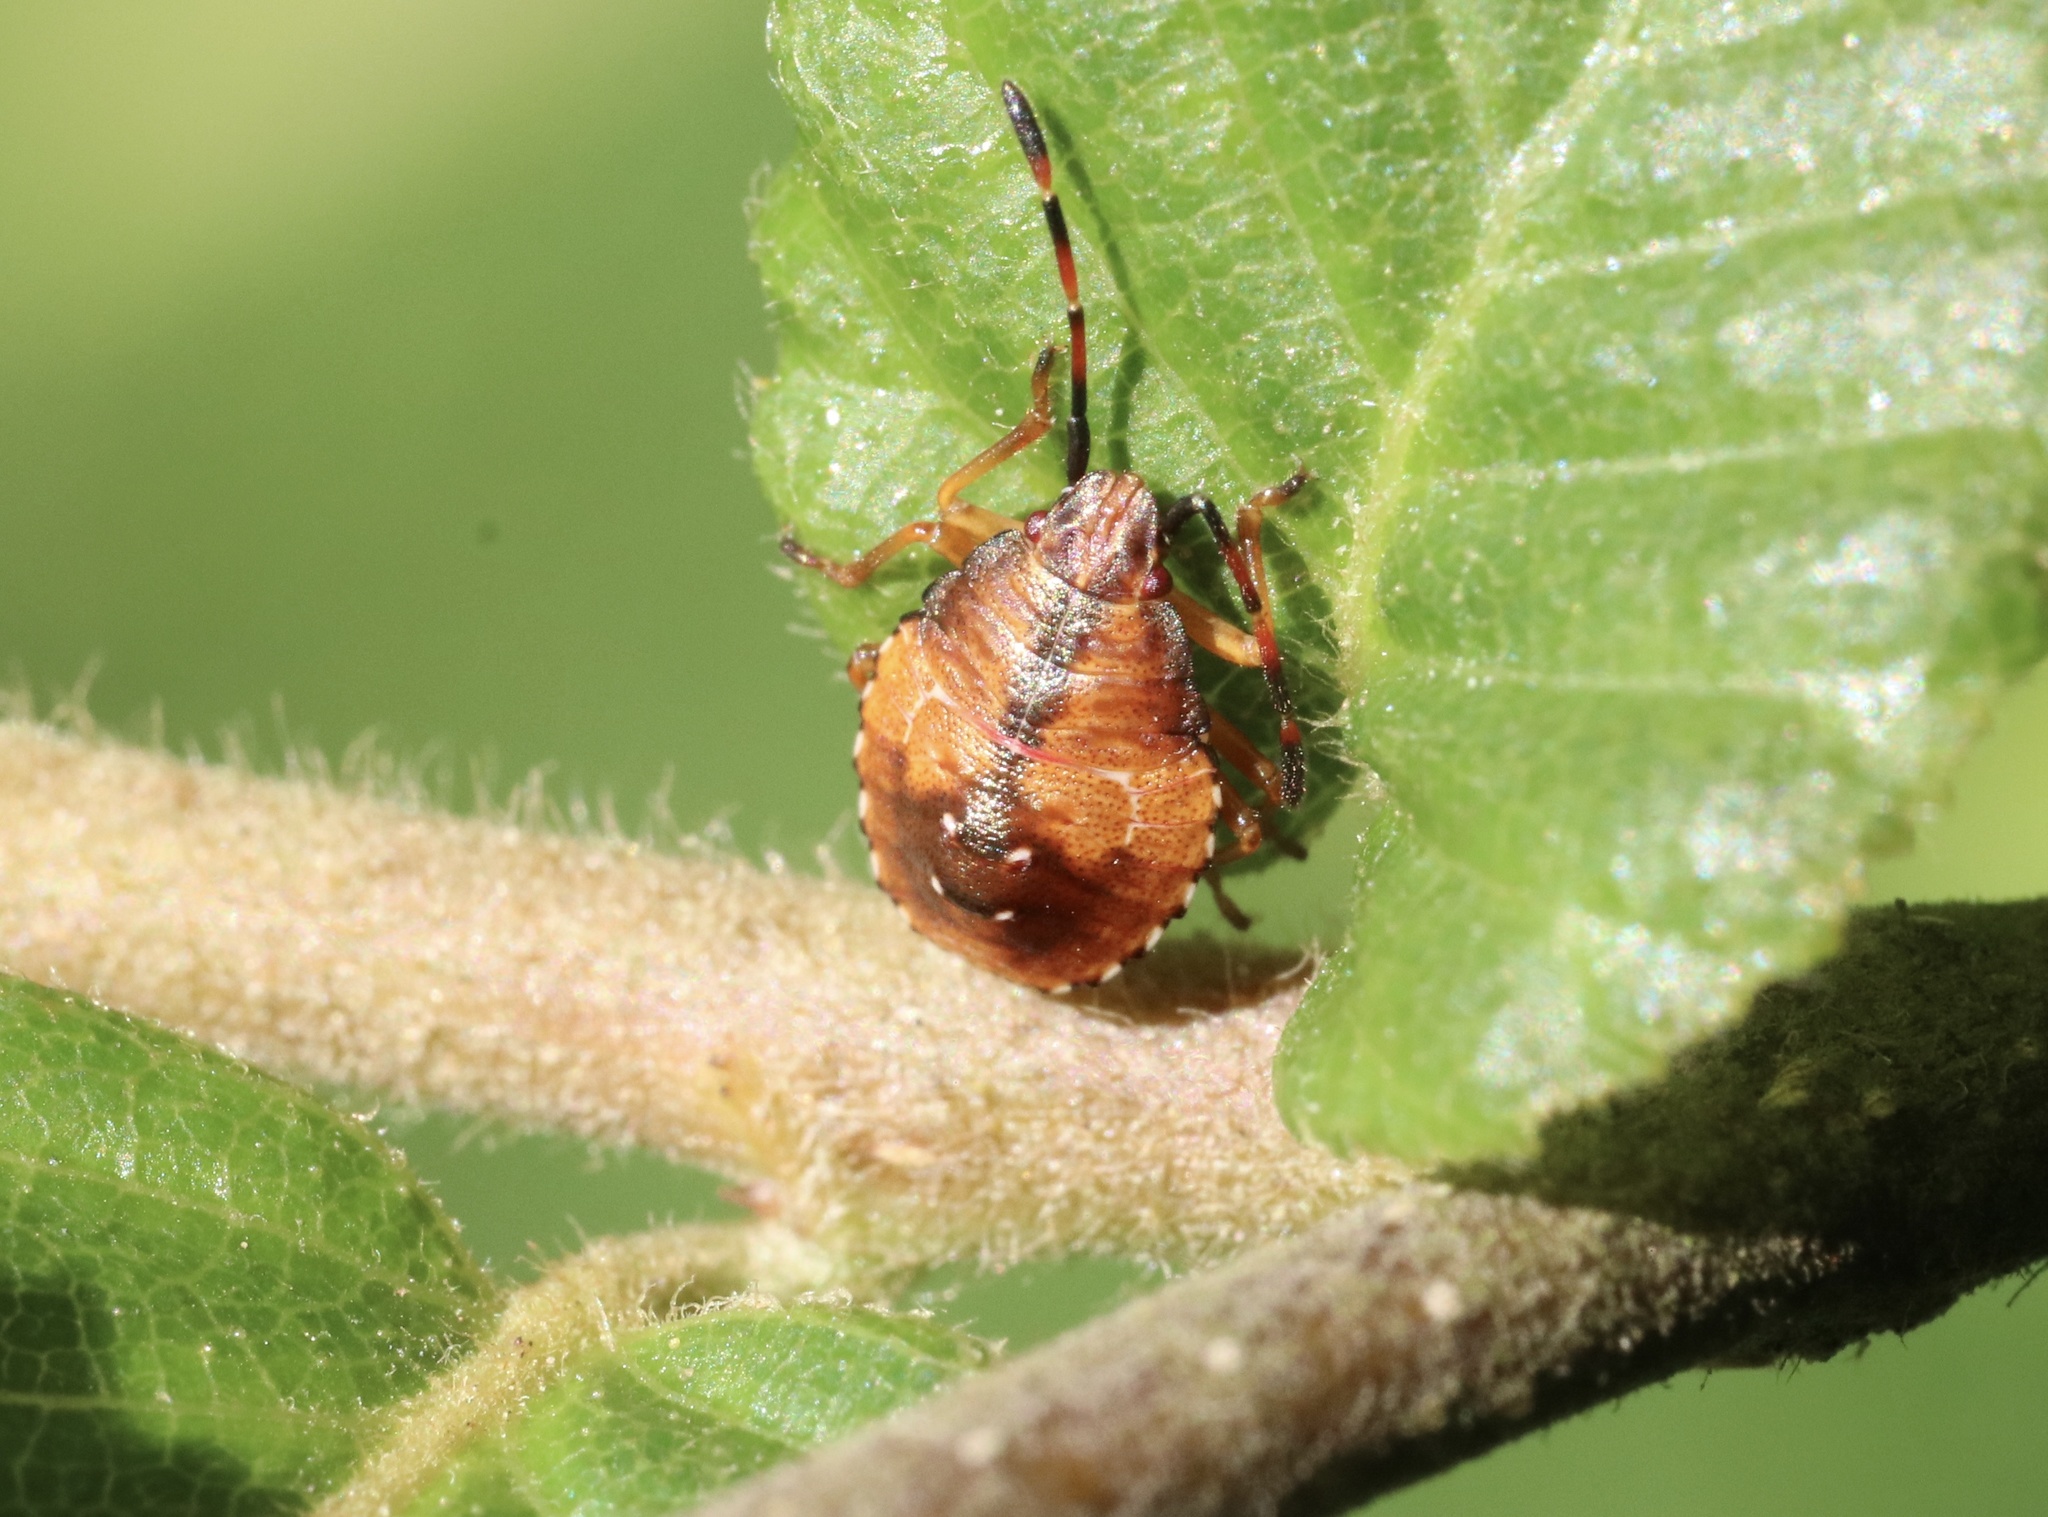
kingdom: Animalia
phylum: Arthropoda
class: Insecta
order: Hemiptera
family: Acanthosomatidae
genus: Planois
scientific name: Planois gayi
